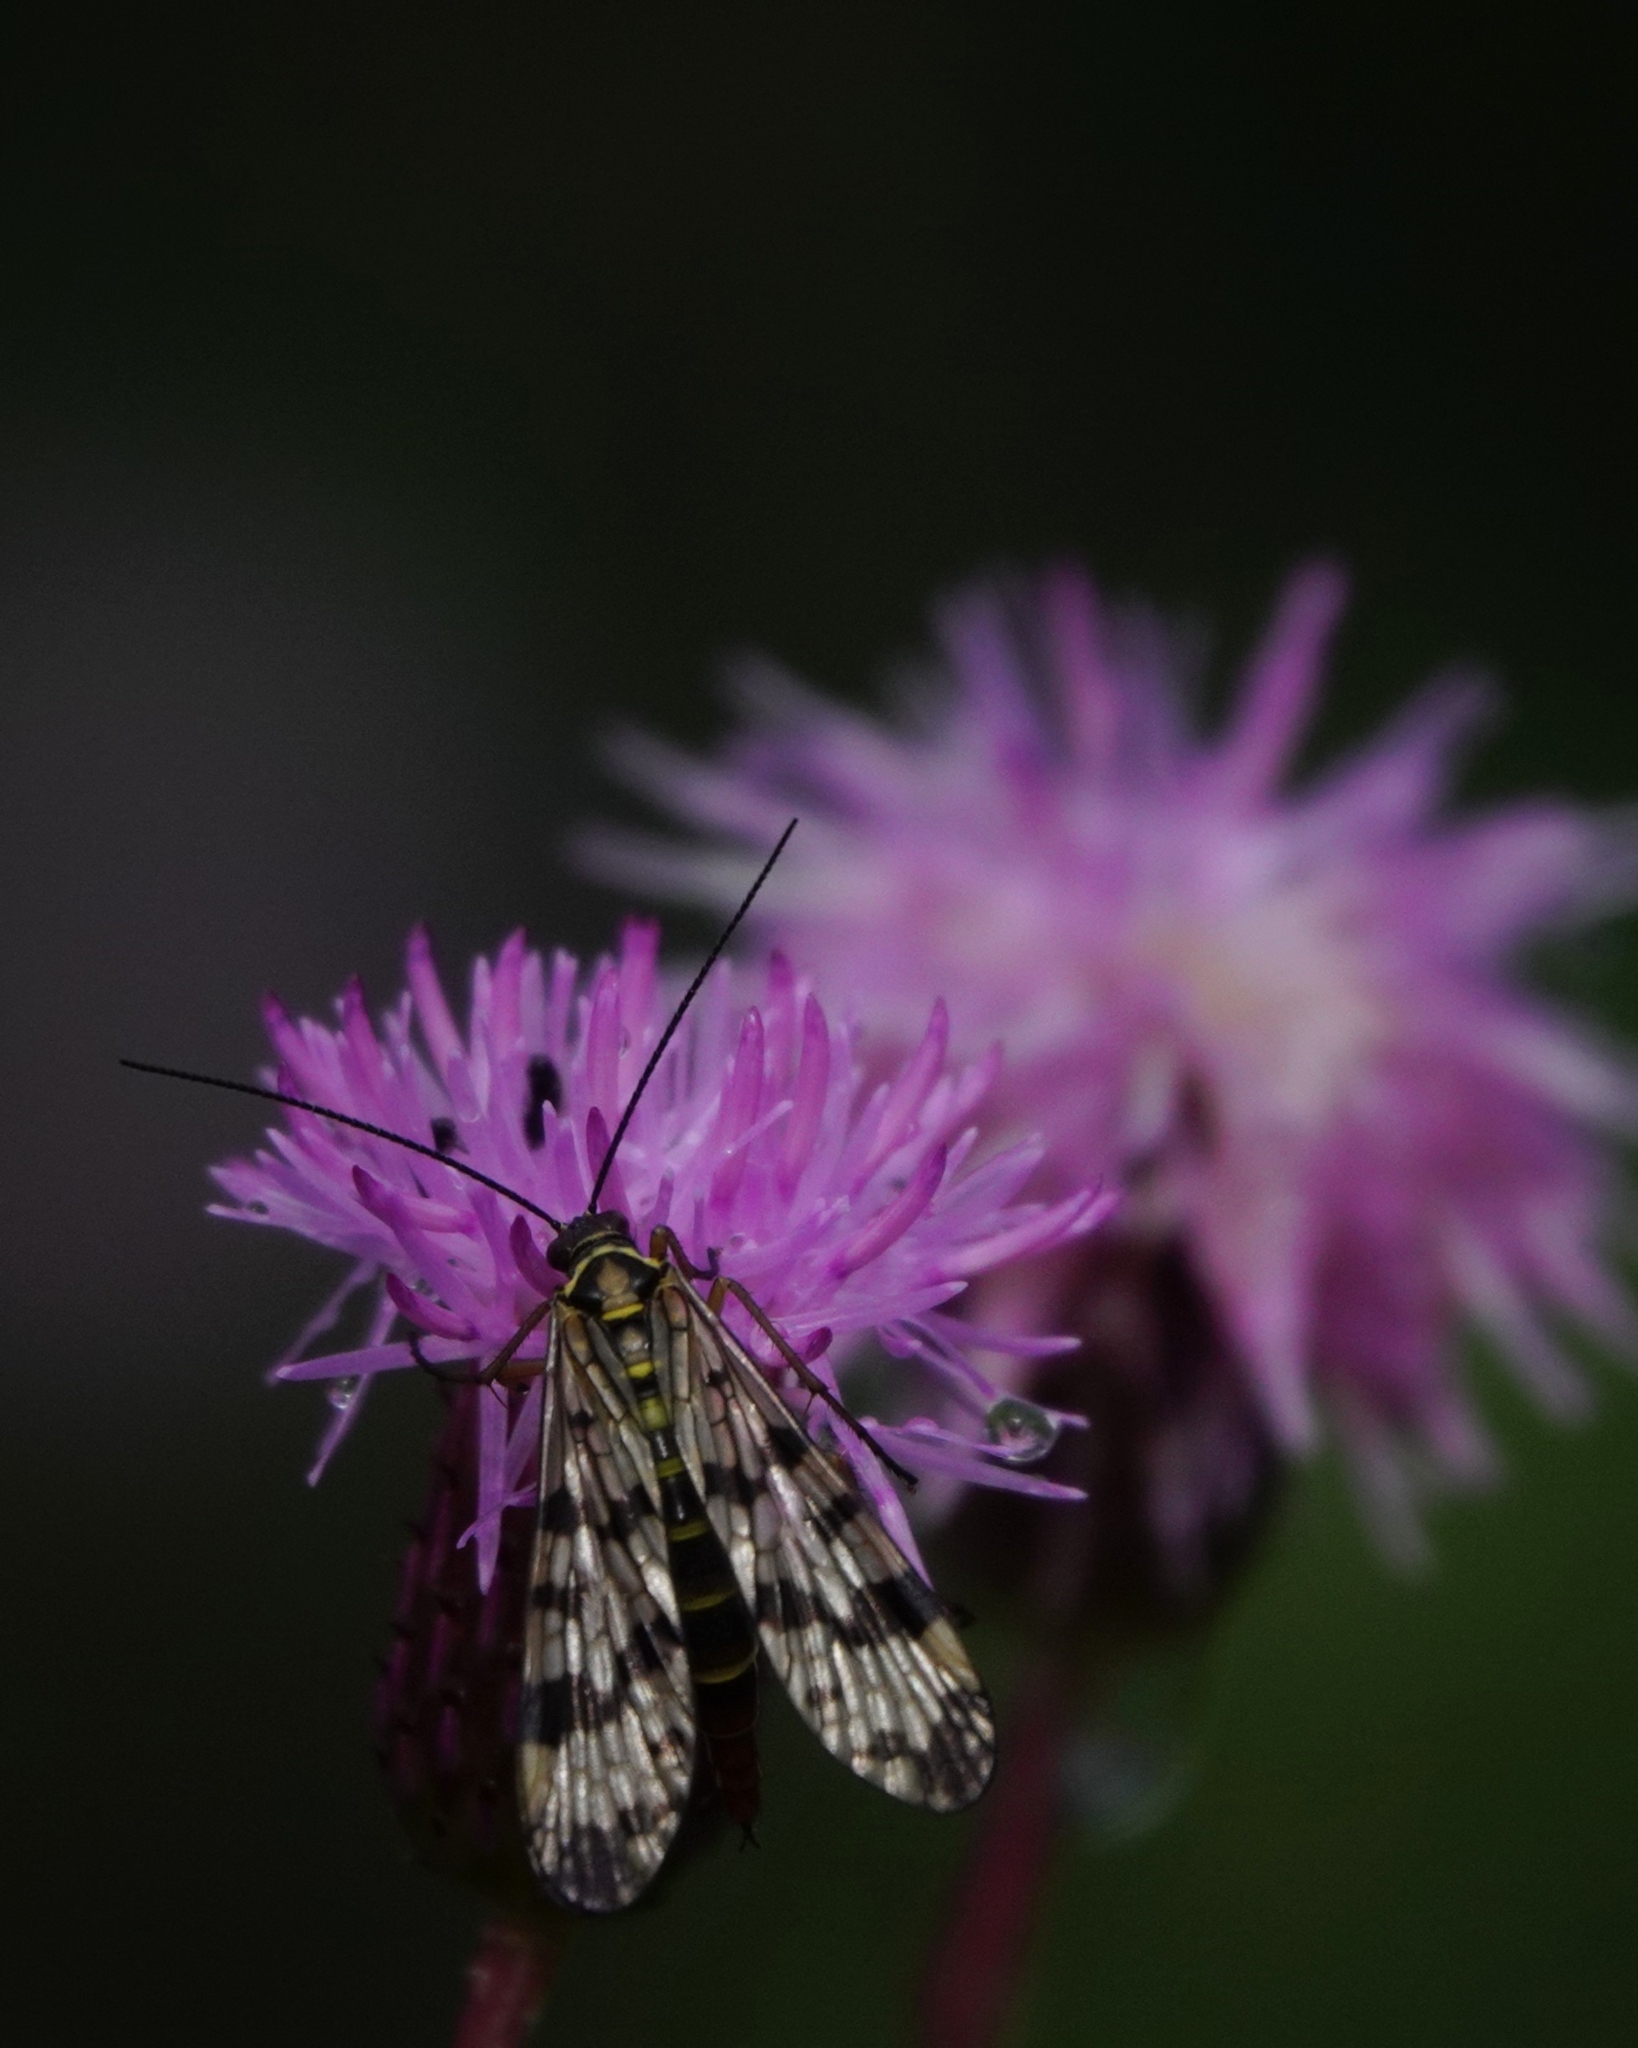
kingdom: Animalia
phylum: Arthropoda
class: Insecta
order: Mecoptera
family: Panorpidae
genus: Panorpa
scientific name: Panorpa communis
